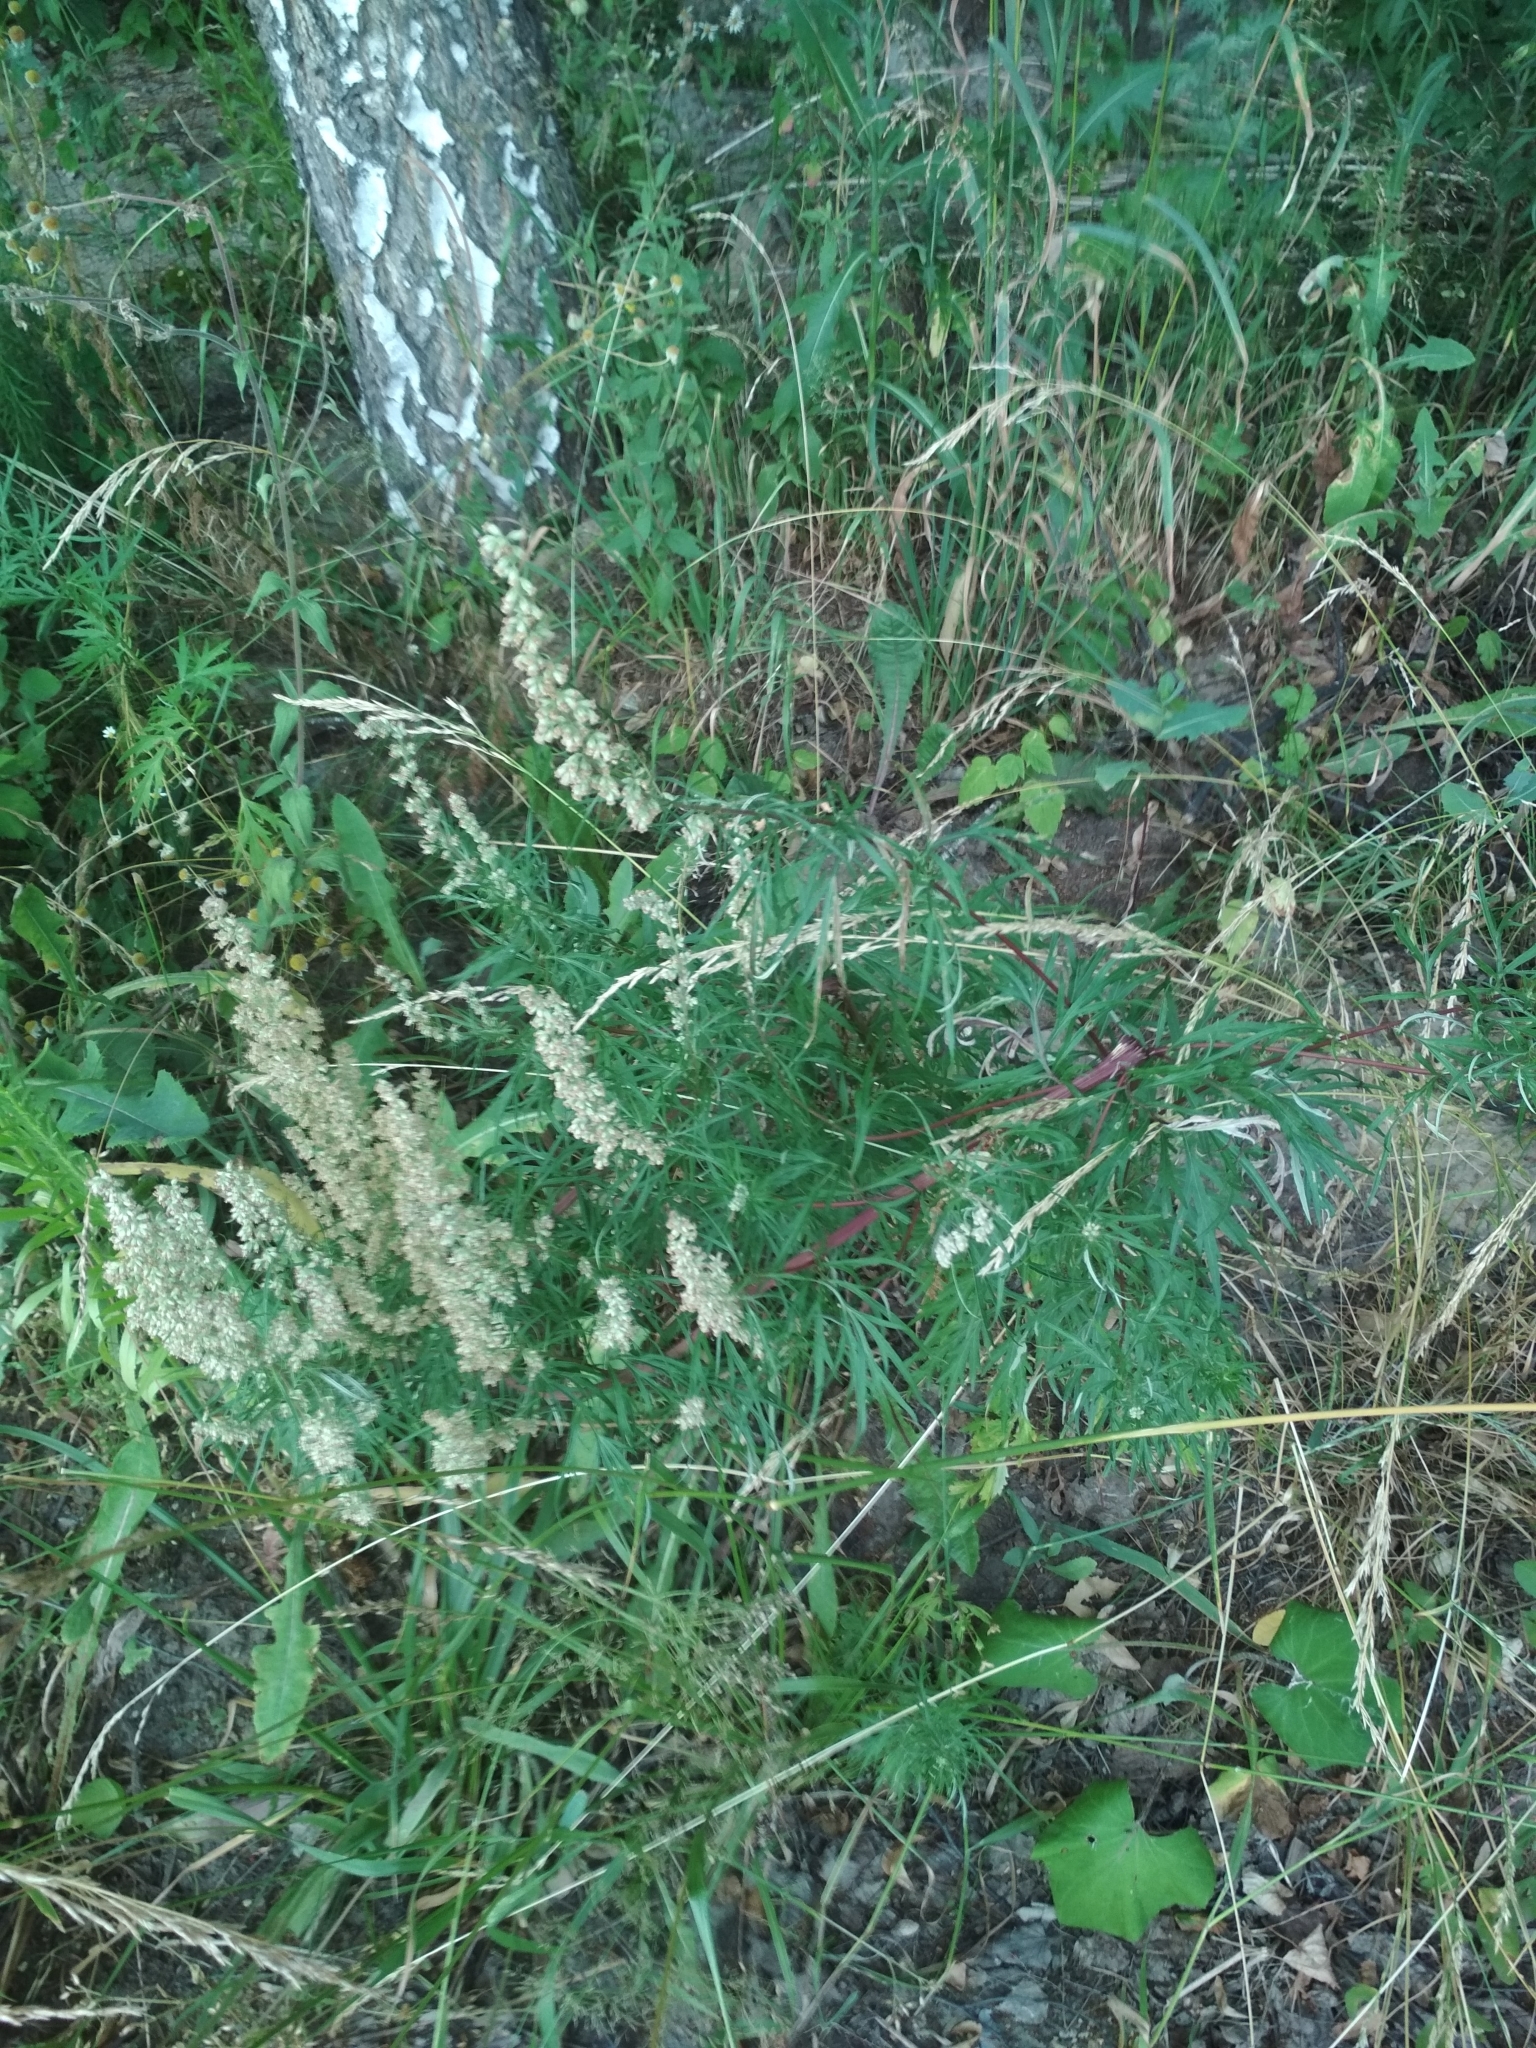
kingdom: Plantae
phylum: Tracheophyta
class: Magnoliopsida
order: Asterales
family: Asteraceae
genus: Artemisia
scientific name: Artemisia vulgaris
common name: Mugwort
